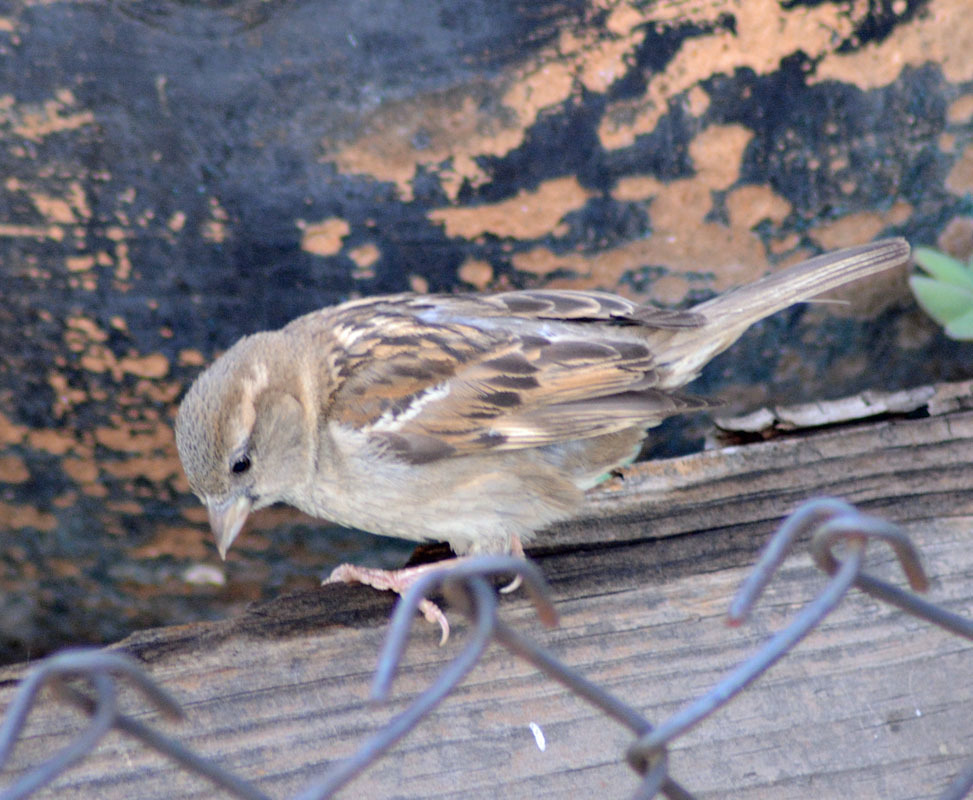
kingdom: Animalia
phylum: Chordata
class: Aves
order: Passeriformes
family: Passeridae
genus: Passer
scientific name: Passer domesticus
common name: House sparrow
